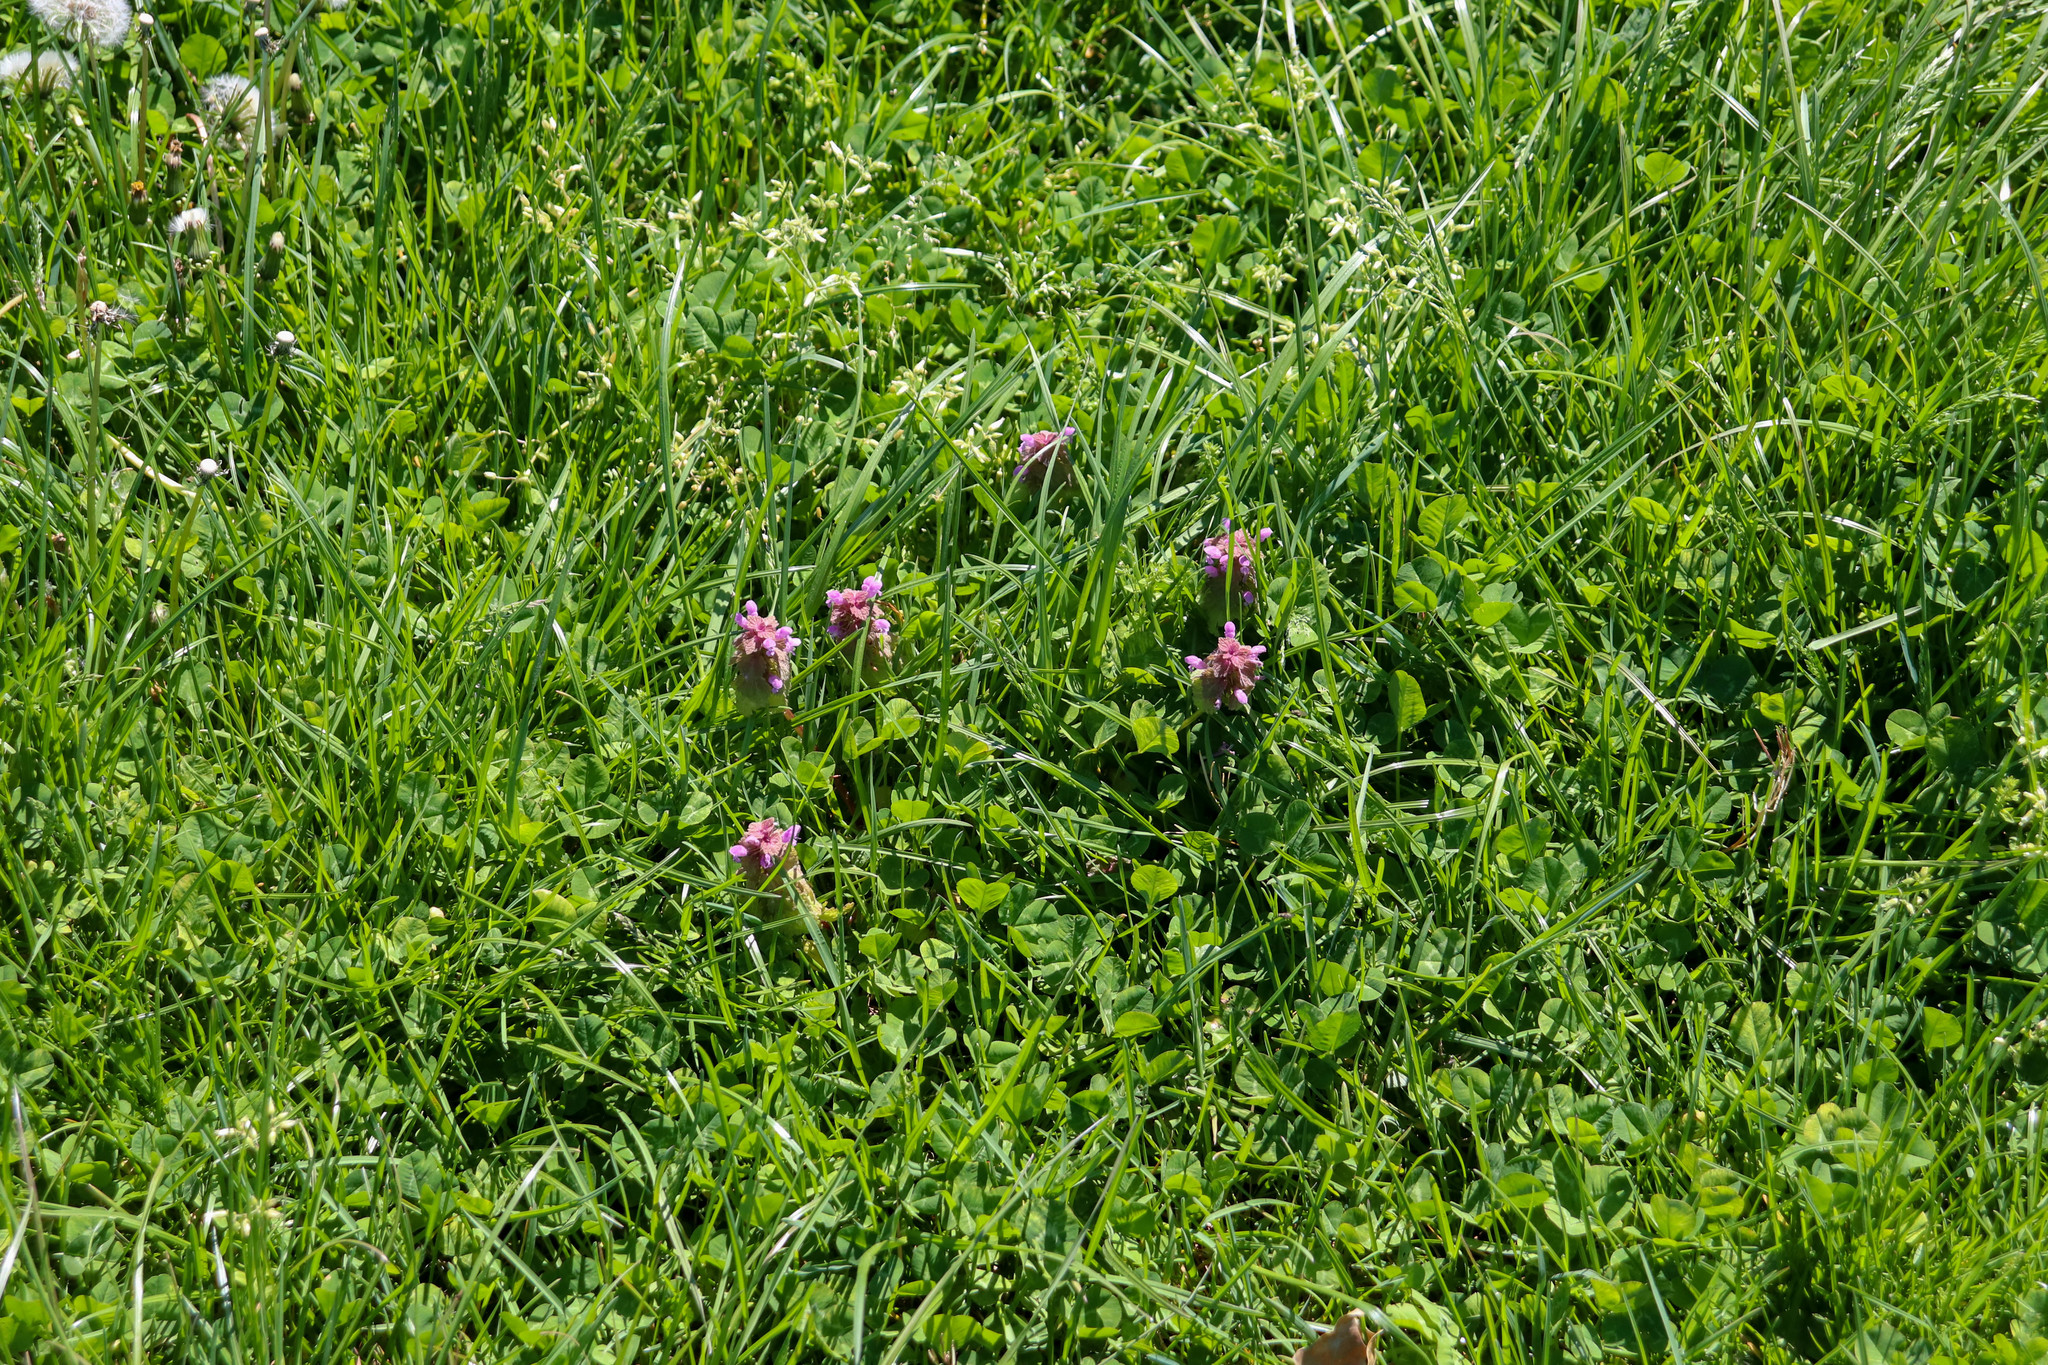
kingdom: Plantae
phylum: Tracheophyta
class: Magnoliopsida
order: Lamiales
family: Lamiaceae
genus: Lamium
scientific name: Lamium purpureum
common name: Red dead-nettle
